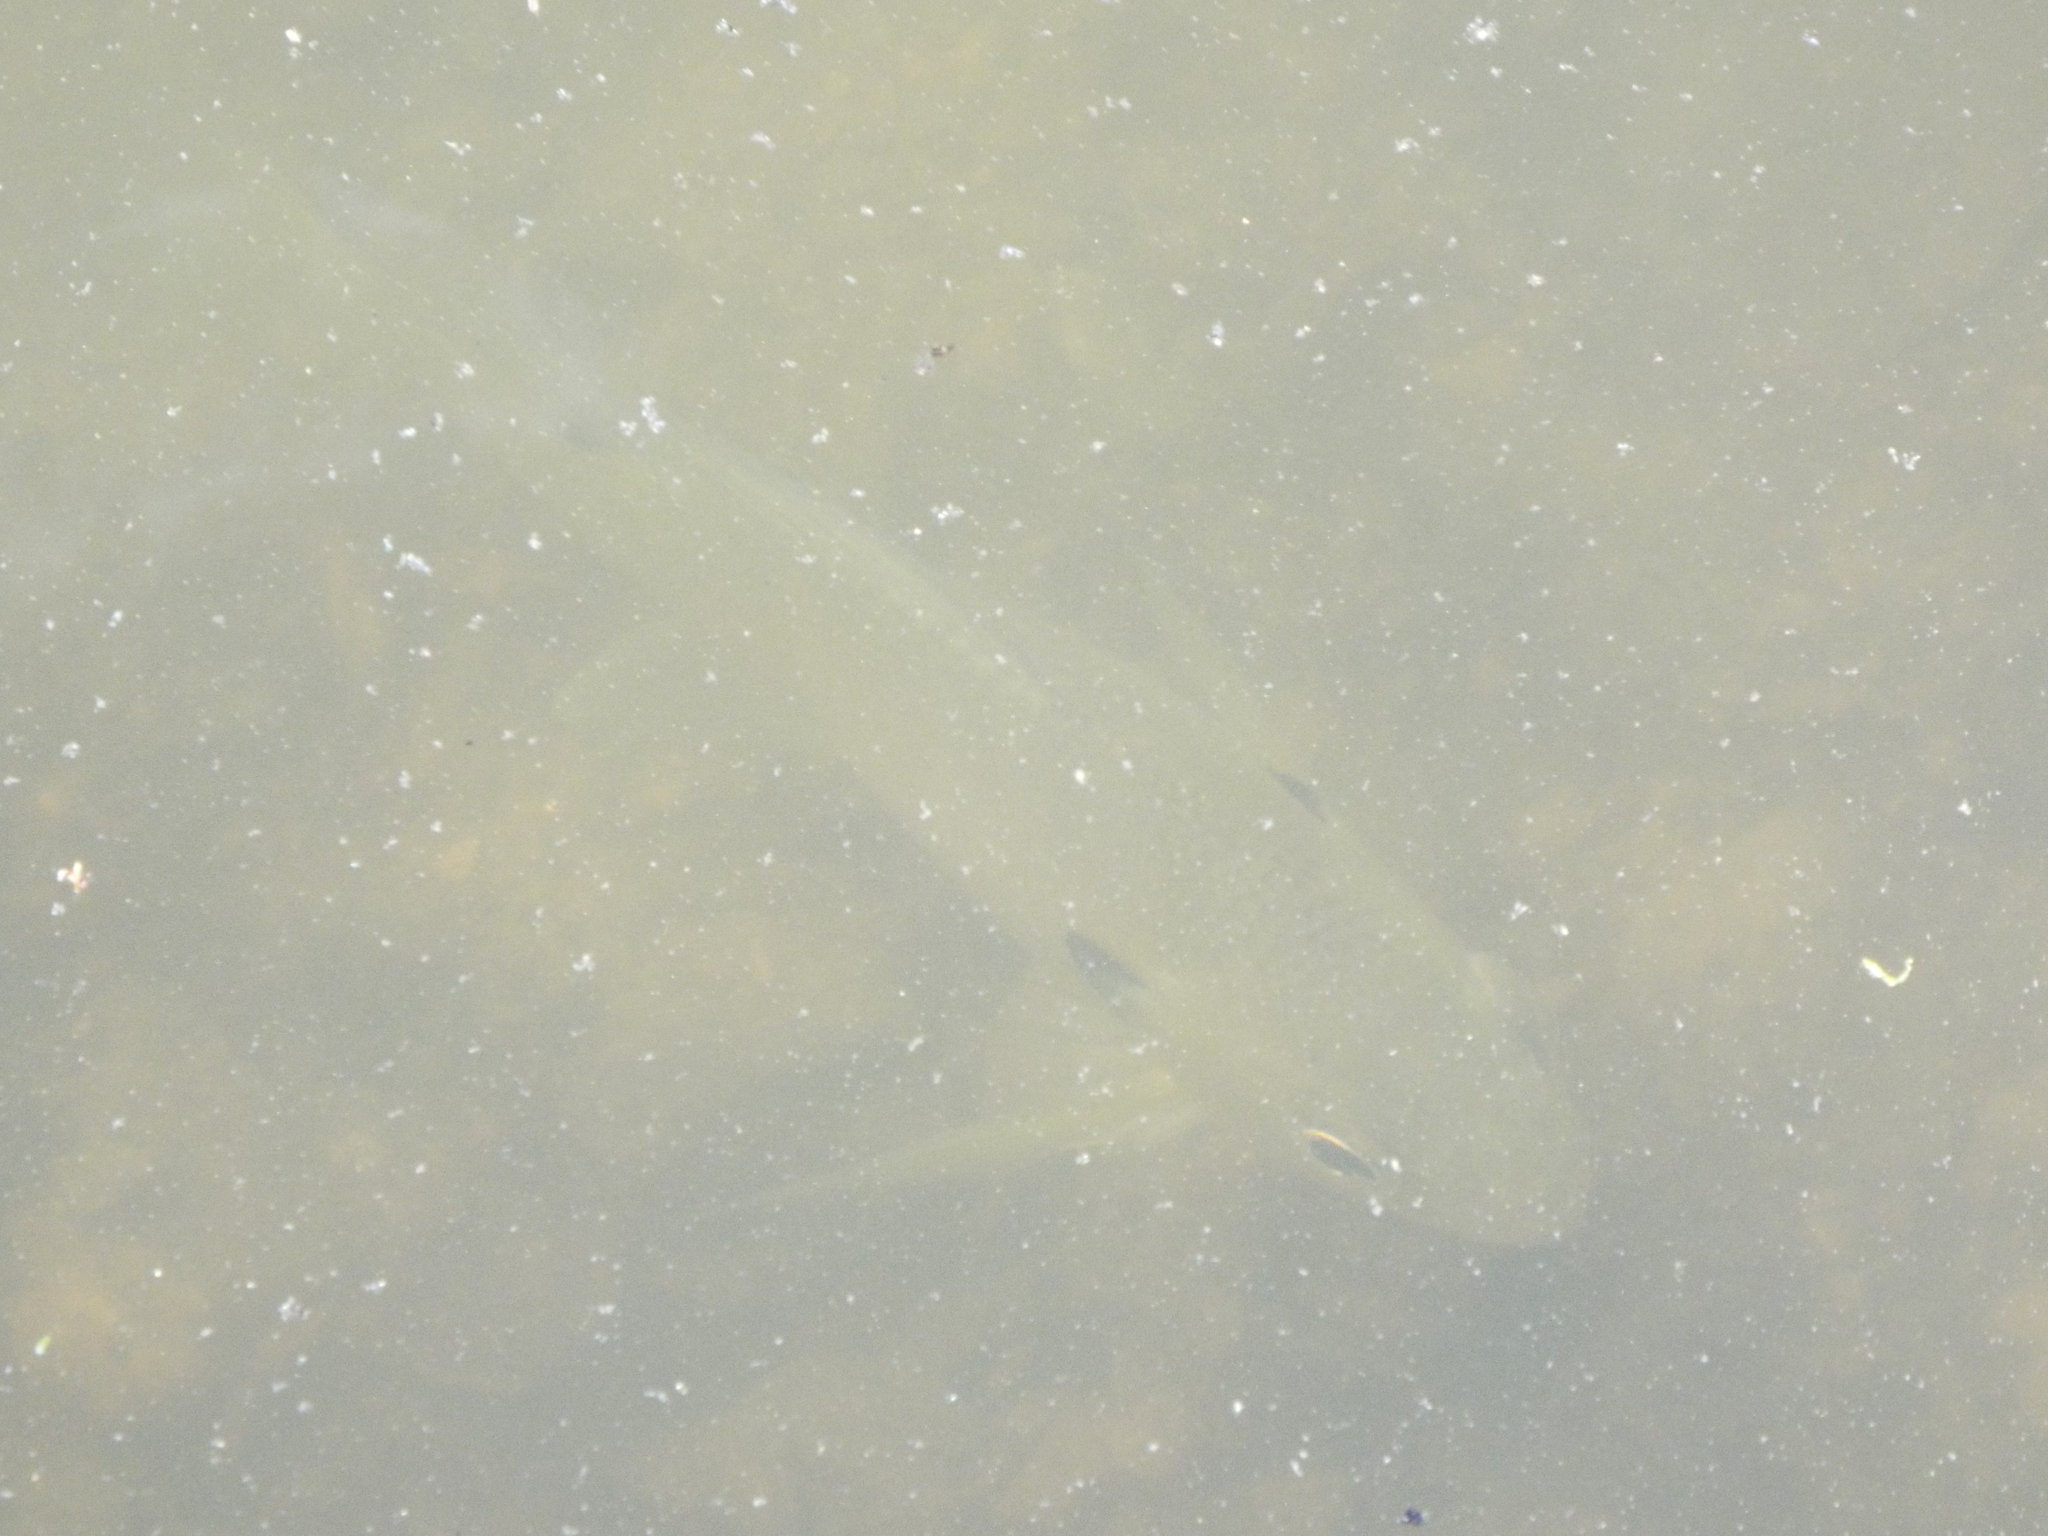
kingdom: Animalia
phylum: Chordata
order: Perciformes
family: Centrarchidae
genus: Lepomis
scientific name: Lepomis
